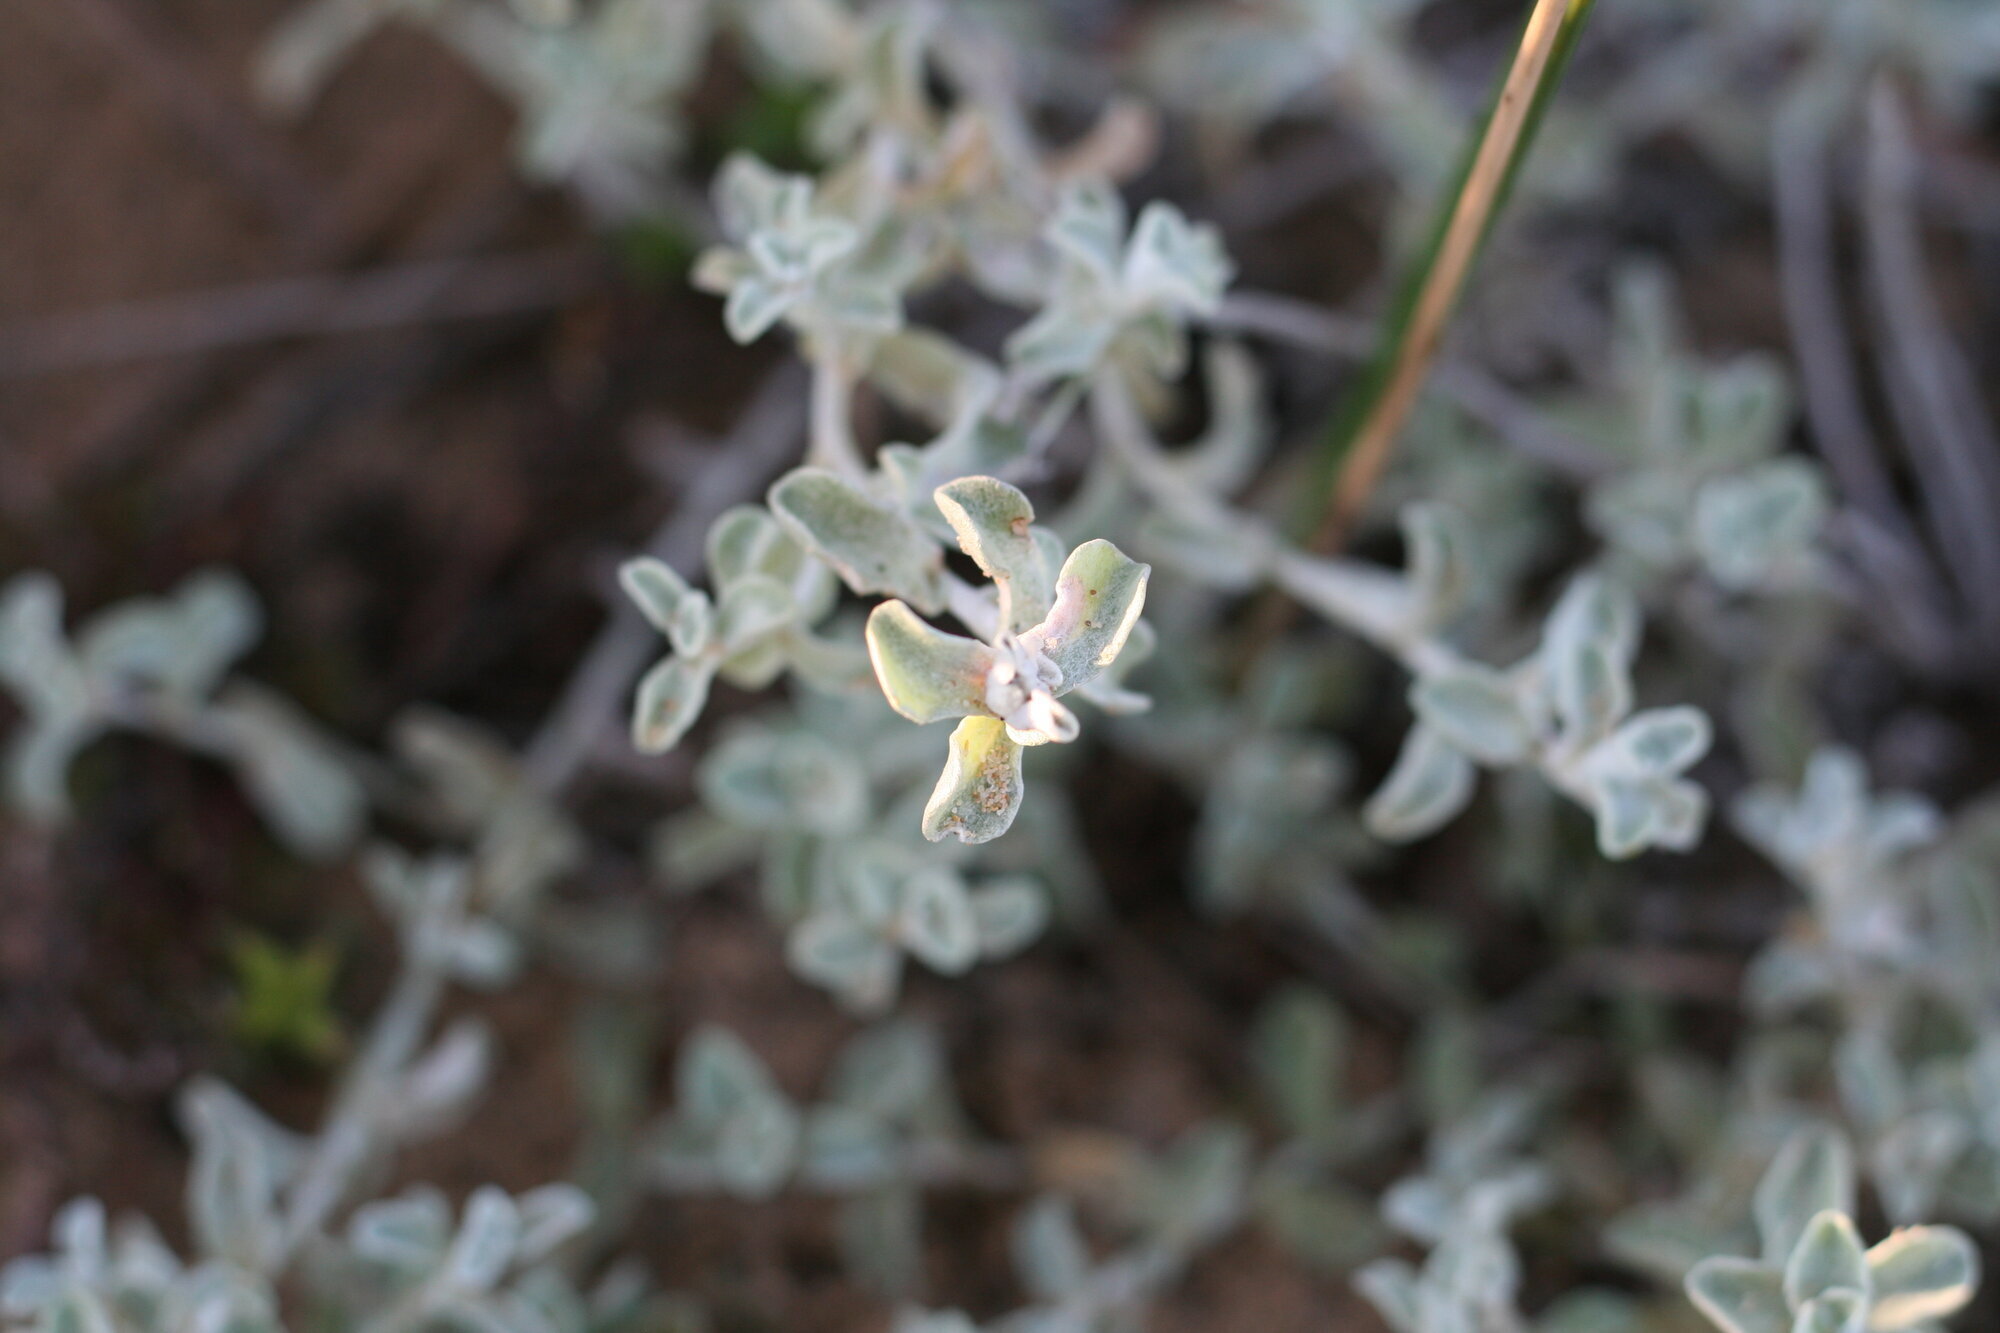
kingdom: Plantae
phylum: Tracheophyta
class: Magnoliopsida
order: Asterales
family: Asteraceae
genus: Helichrysum
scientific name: Helichrysum petiolare
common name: Licorice-plant
